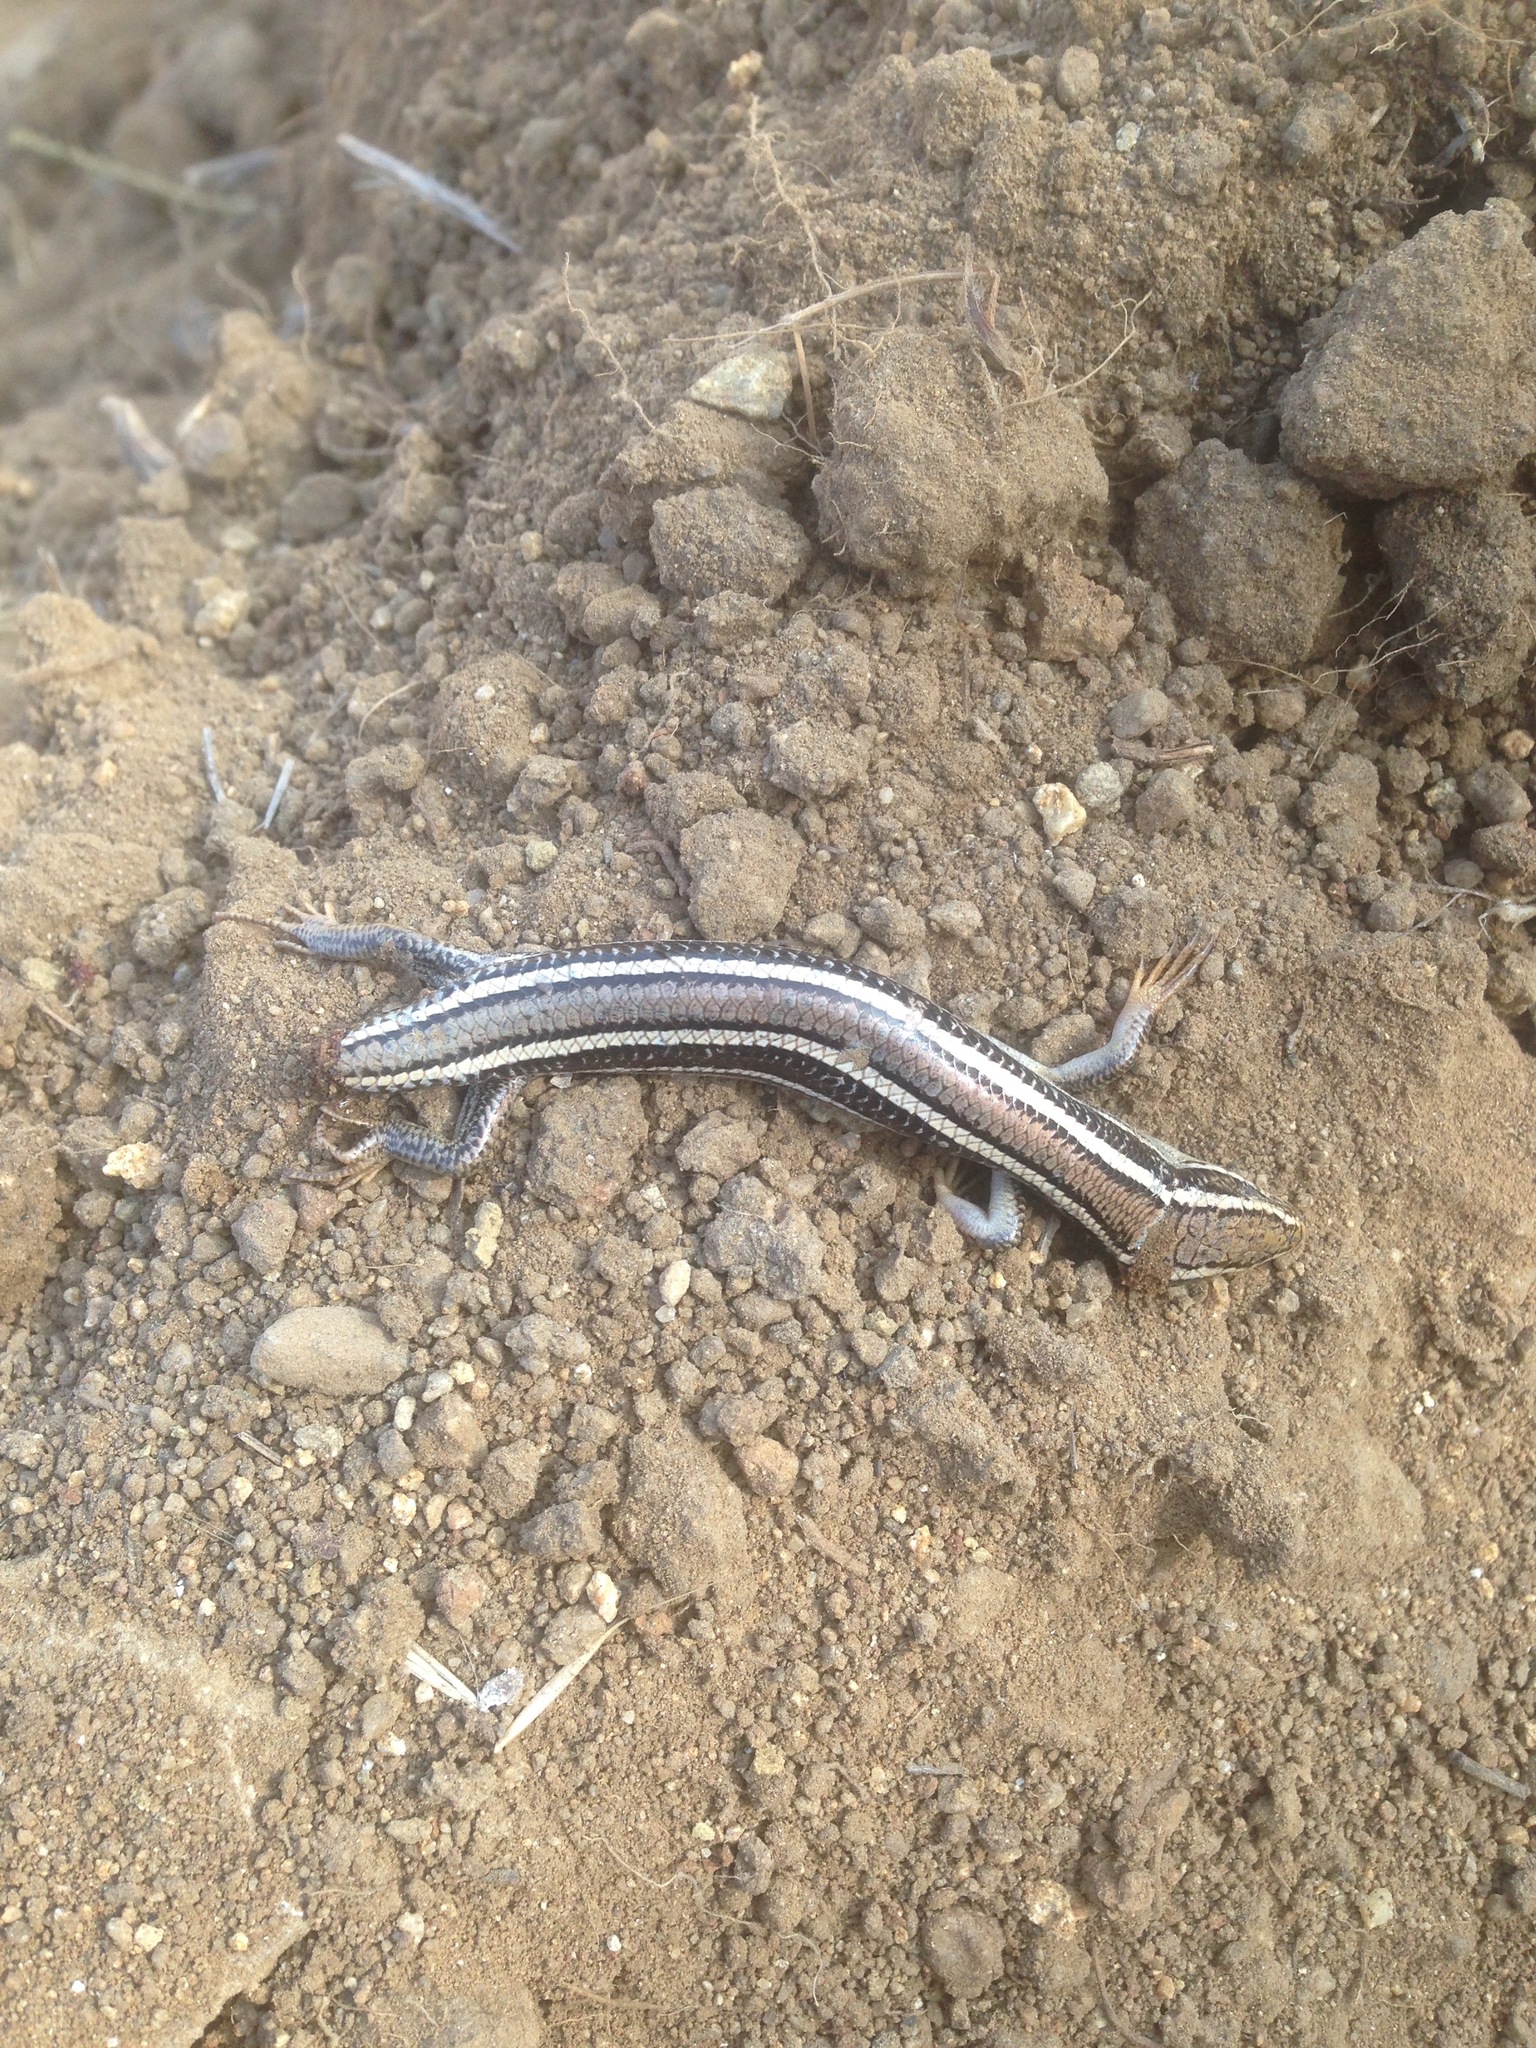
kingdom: Animalia
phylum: Chordata
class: Squamata
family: Scincidae
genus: Plestiodon
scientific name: Plestiodon skiltonianus
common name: Coronado island skink [interparietalis]
